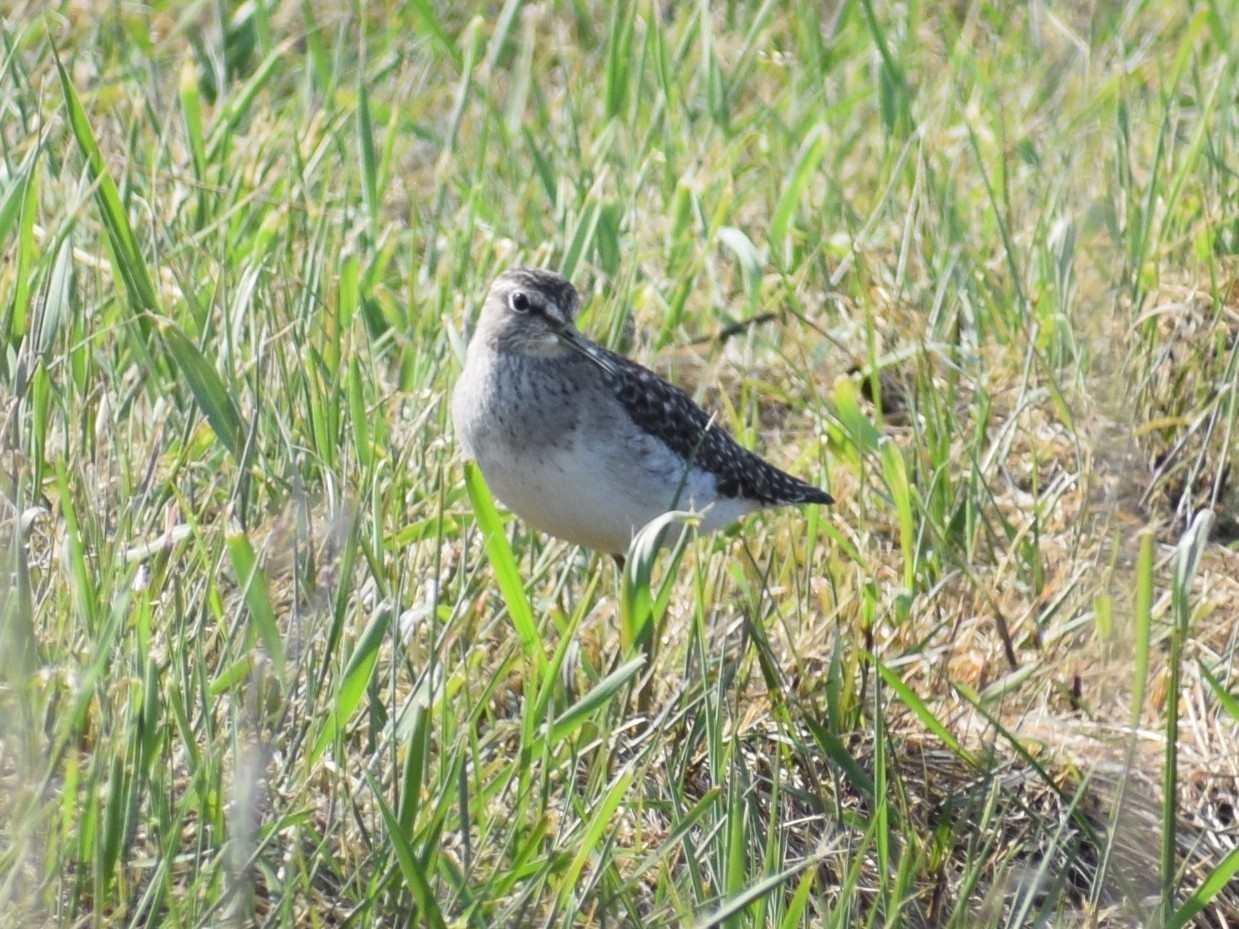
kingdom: Animalia
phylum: Chordata
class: Aves
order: Charadriiformes
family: Scolopacidae
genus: Tringa
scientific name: Tringa glareola
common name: Wood sandpiper
